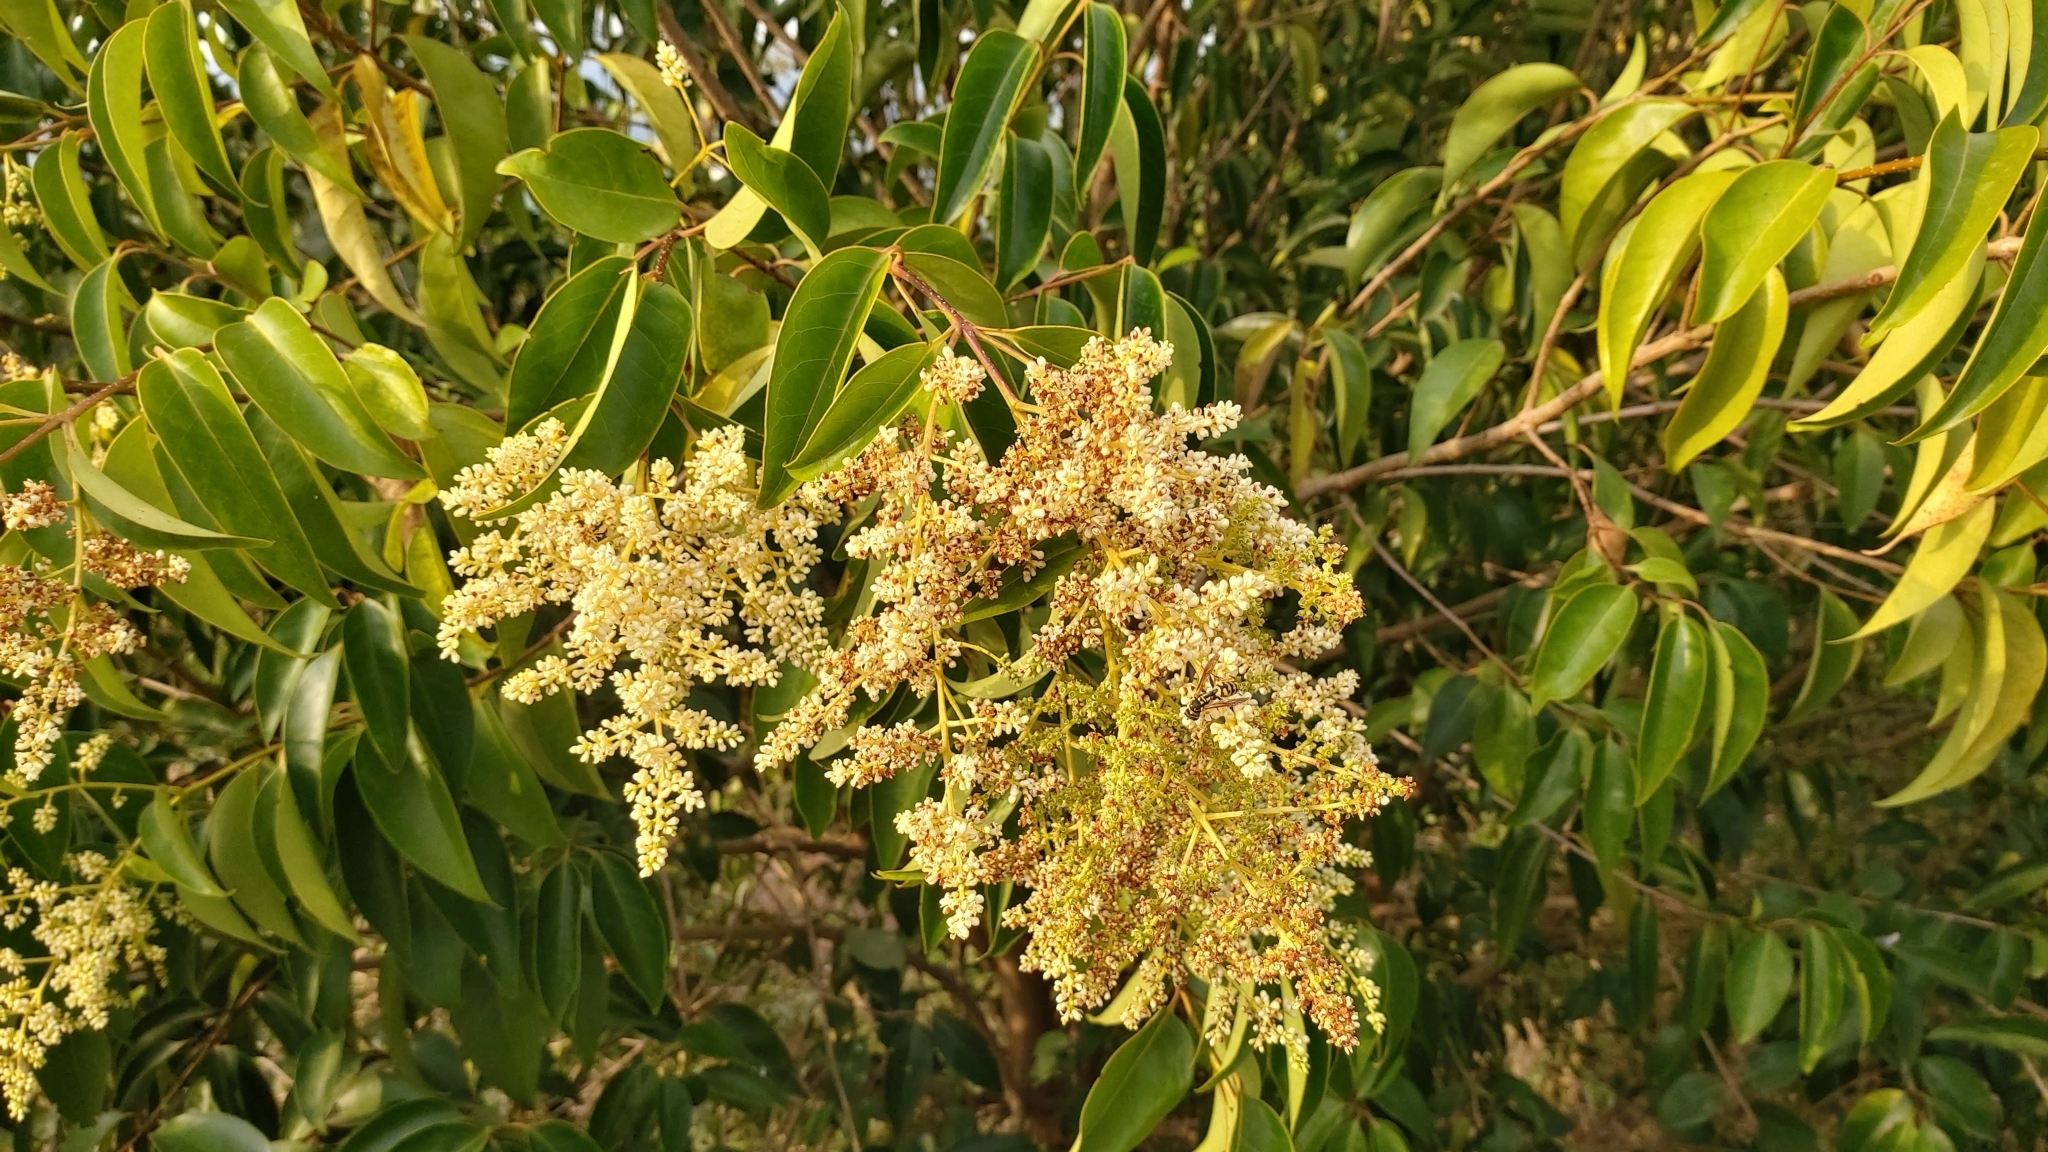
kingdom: Plantae
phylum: Tracheophyta
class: Magnoliopsida
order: Lamiales
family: Oleaceae
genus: Ligustrum
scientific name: Ligustrum lucidum
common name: Glossy privet
